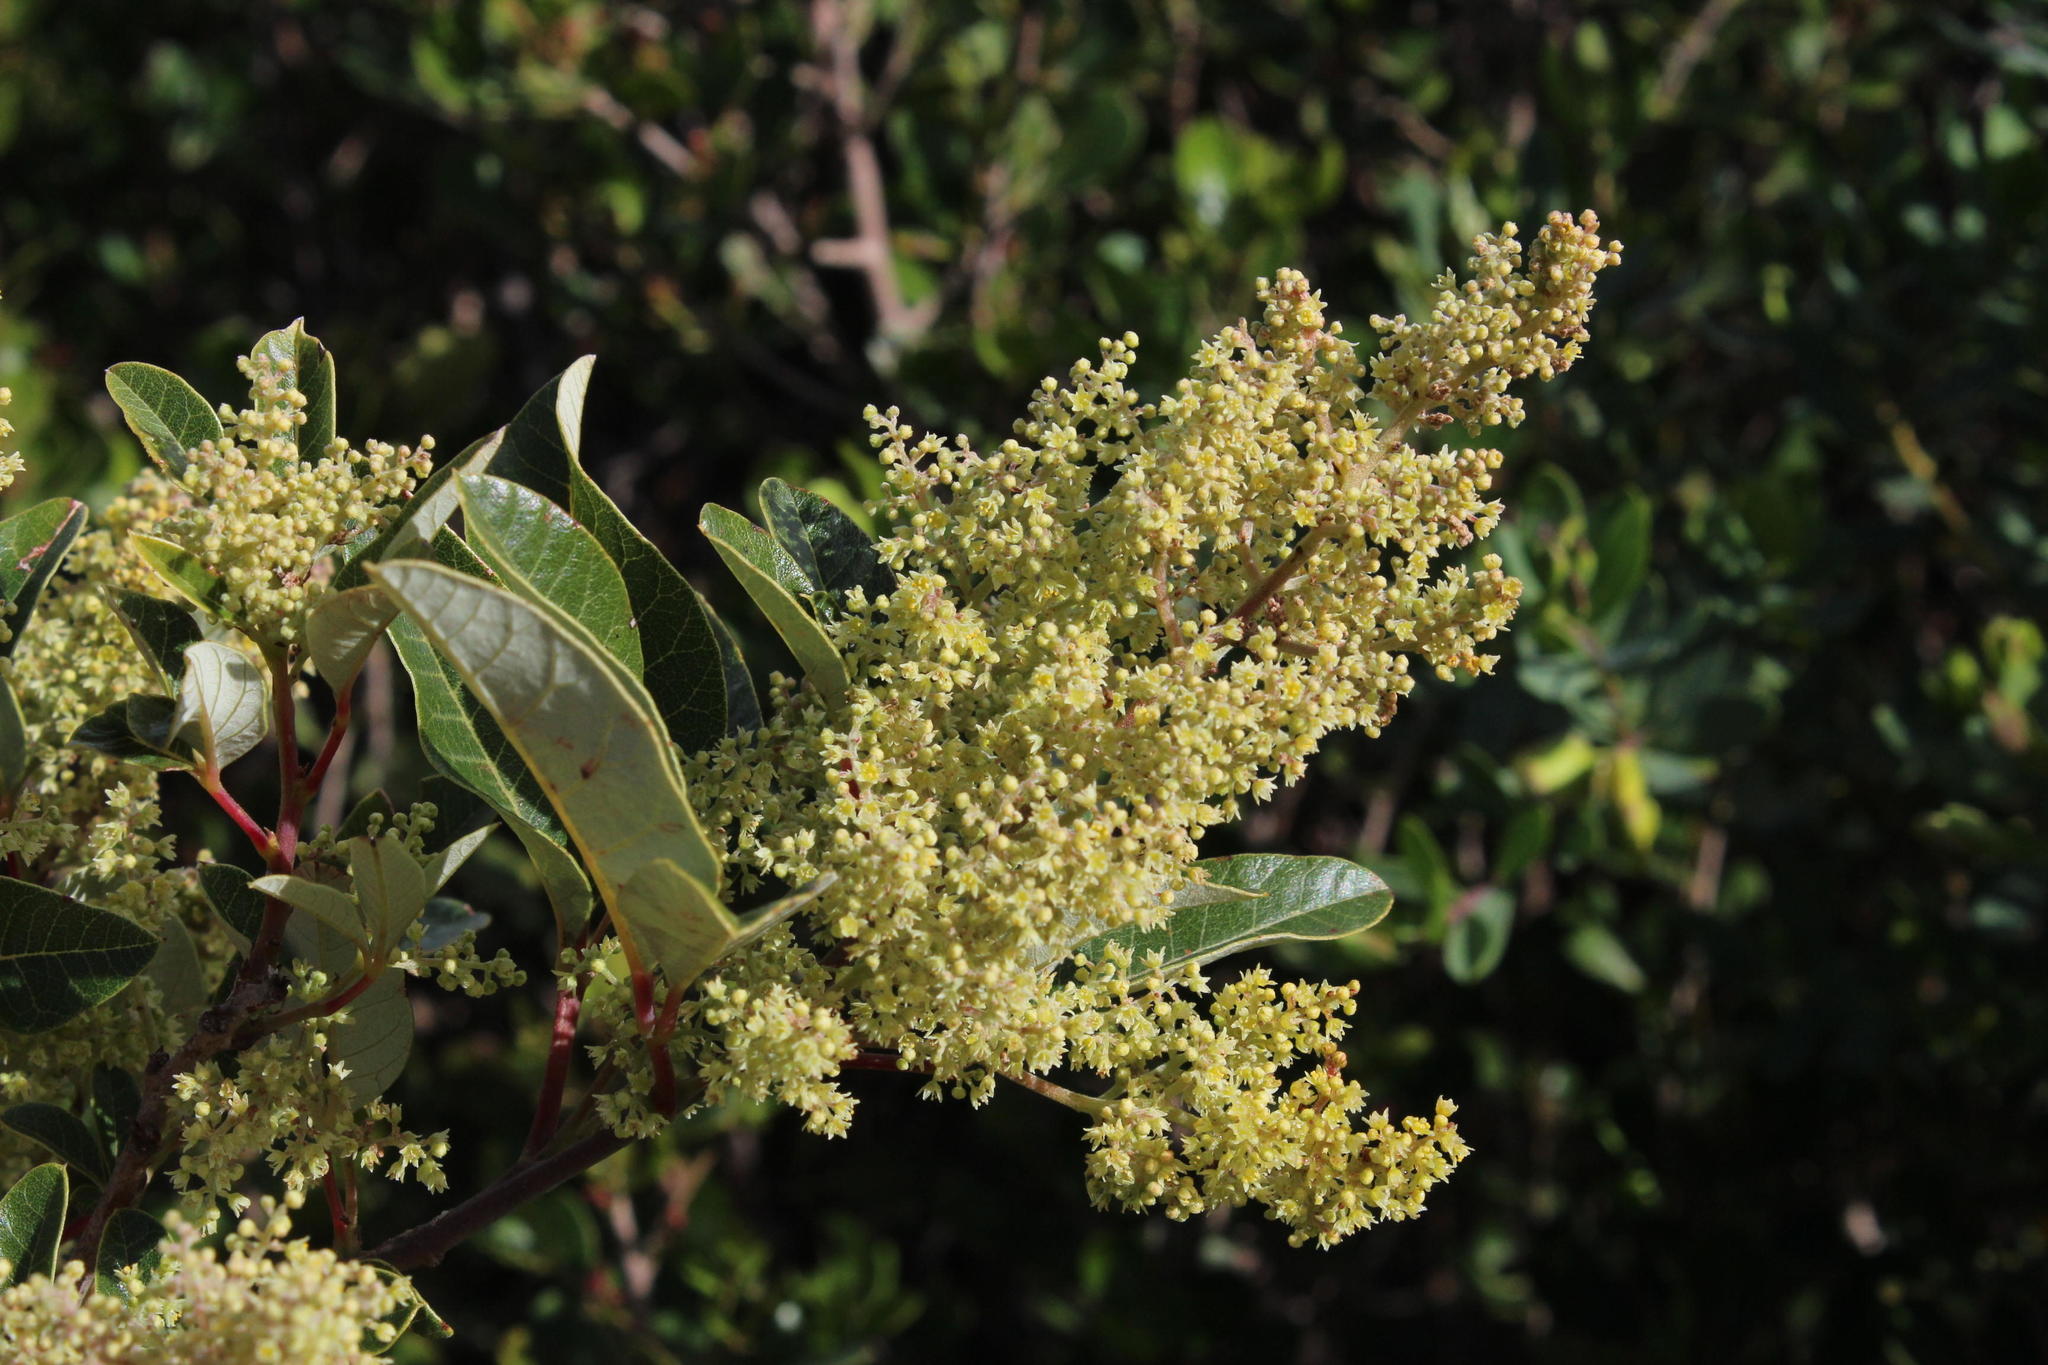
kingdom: Plantae
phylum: Tracheophyta
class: Magnoliopsida
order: Sapindales
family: Anacardiaceae
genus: Searsia
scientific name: Searsia tomentosa
